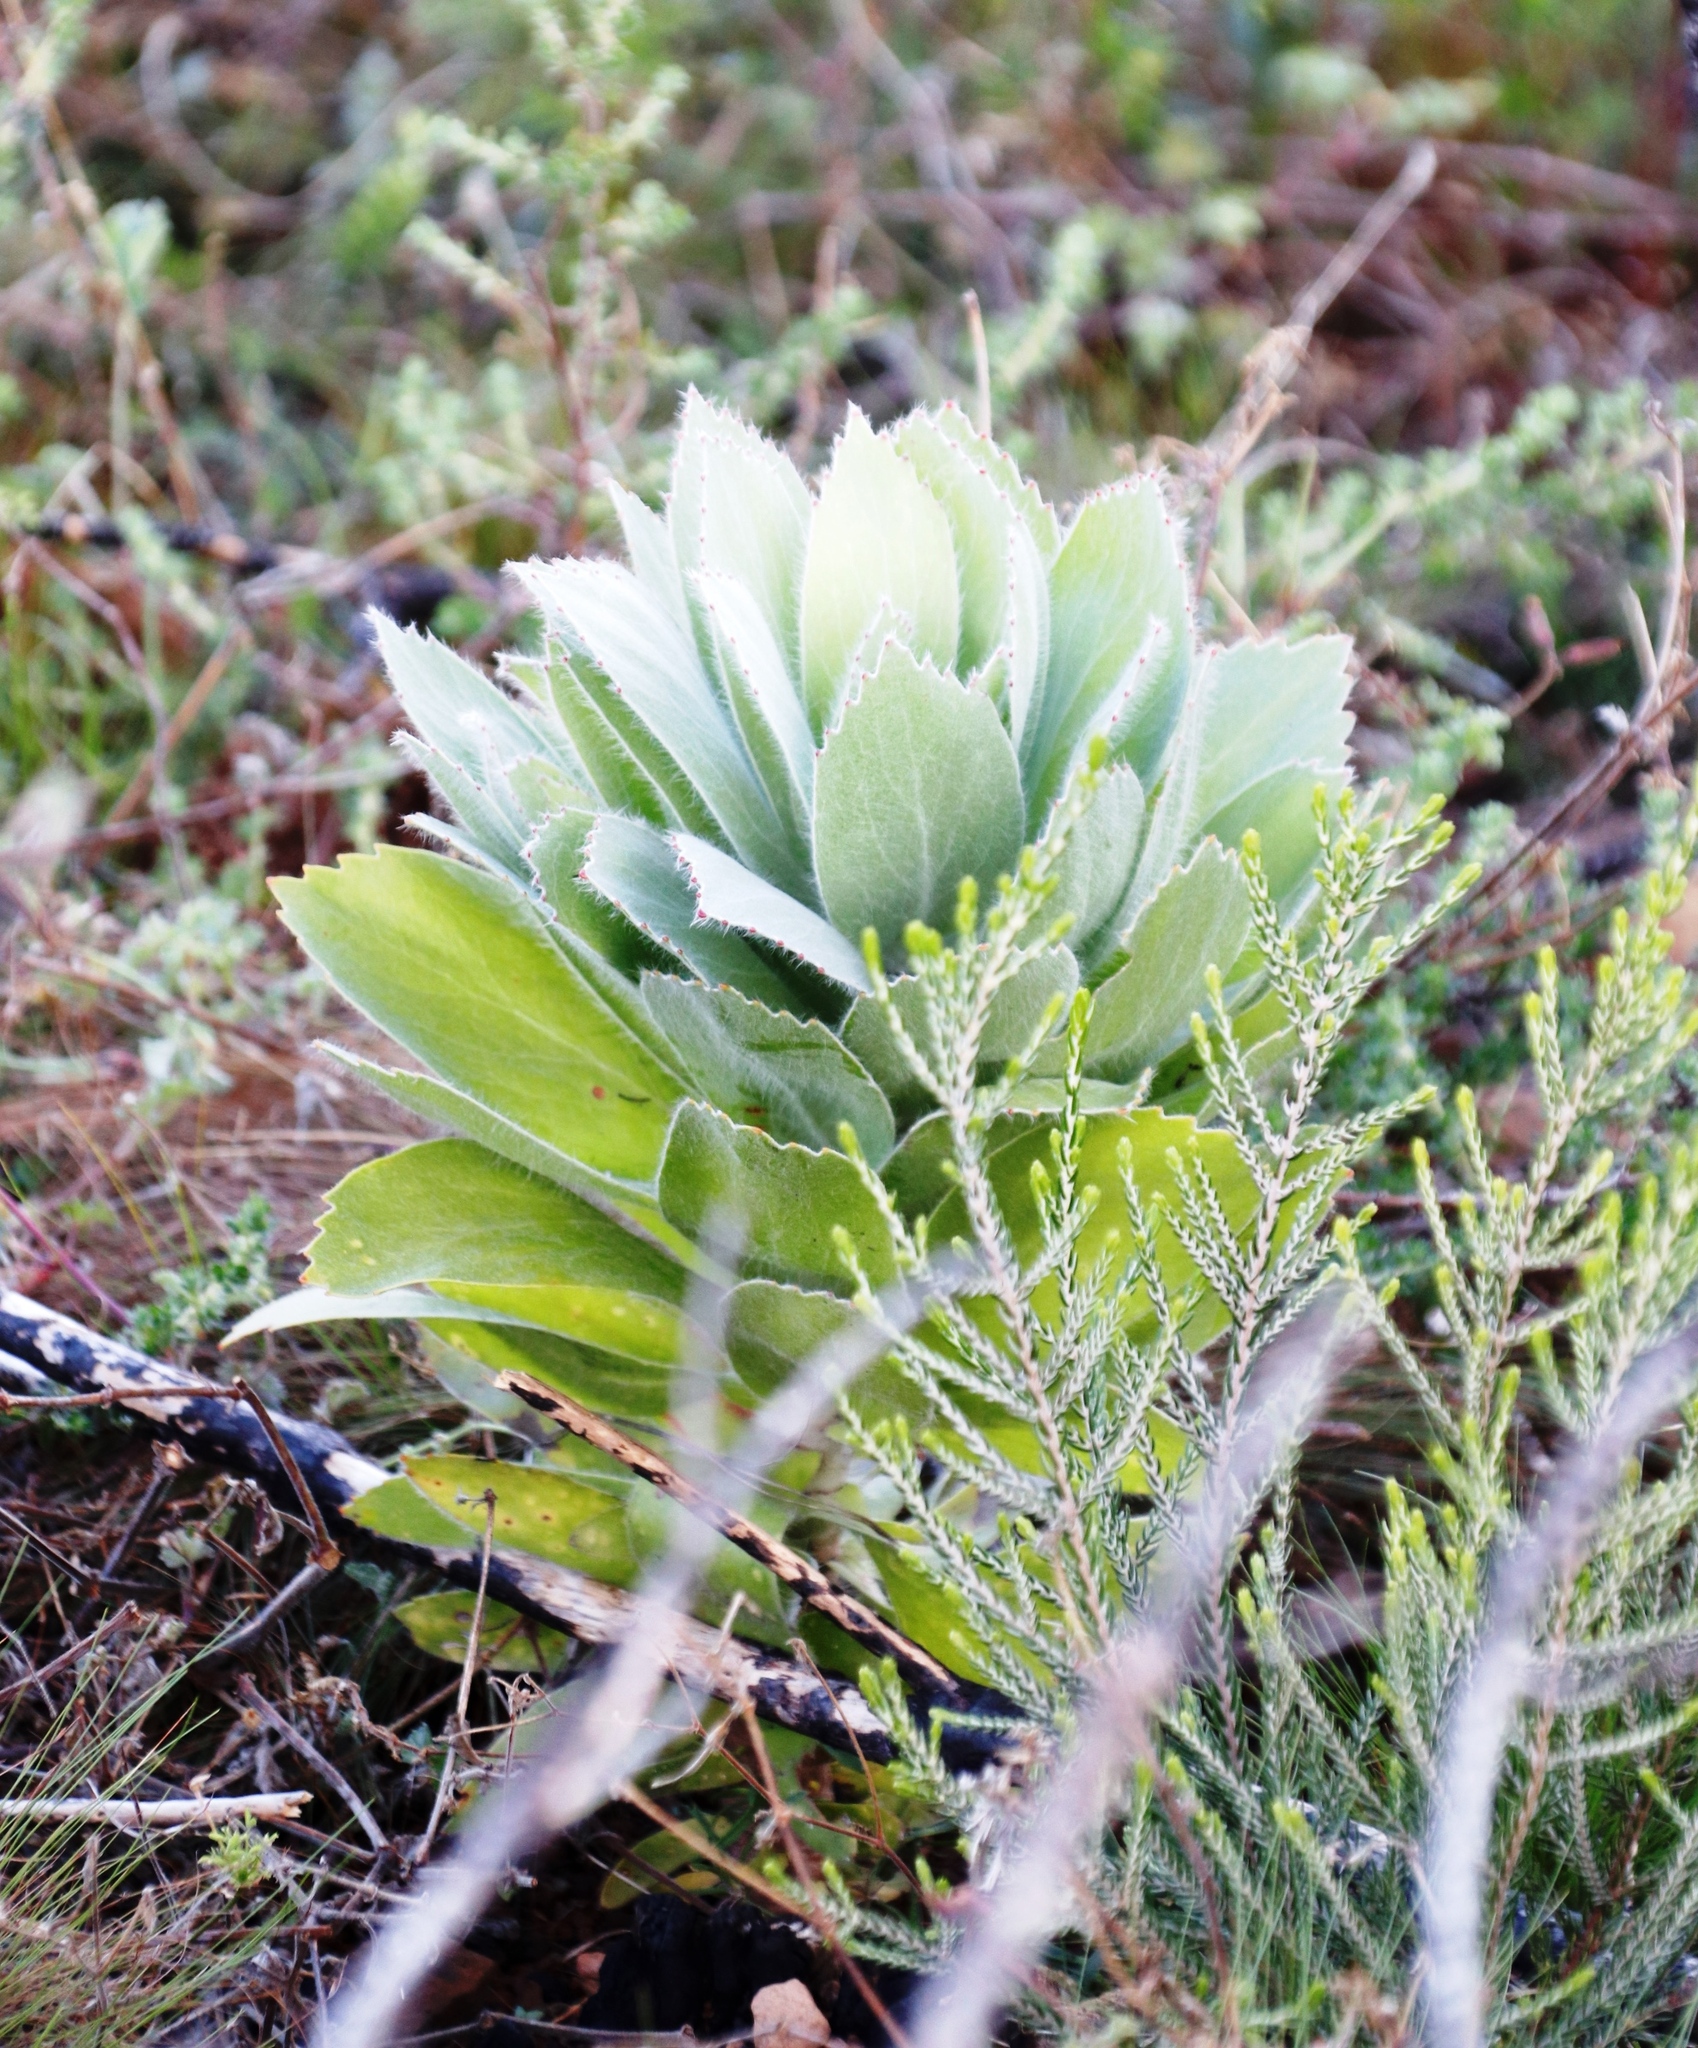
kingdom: Plantae
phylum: Tracheophyta
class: Magnoliopsida
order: Proteales
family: Proteaceae
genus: Leucospermum
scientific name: Leucospermum conocarpodendron
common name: Tree pincushion
